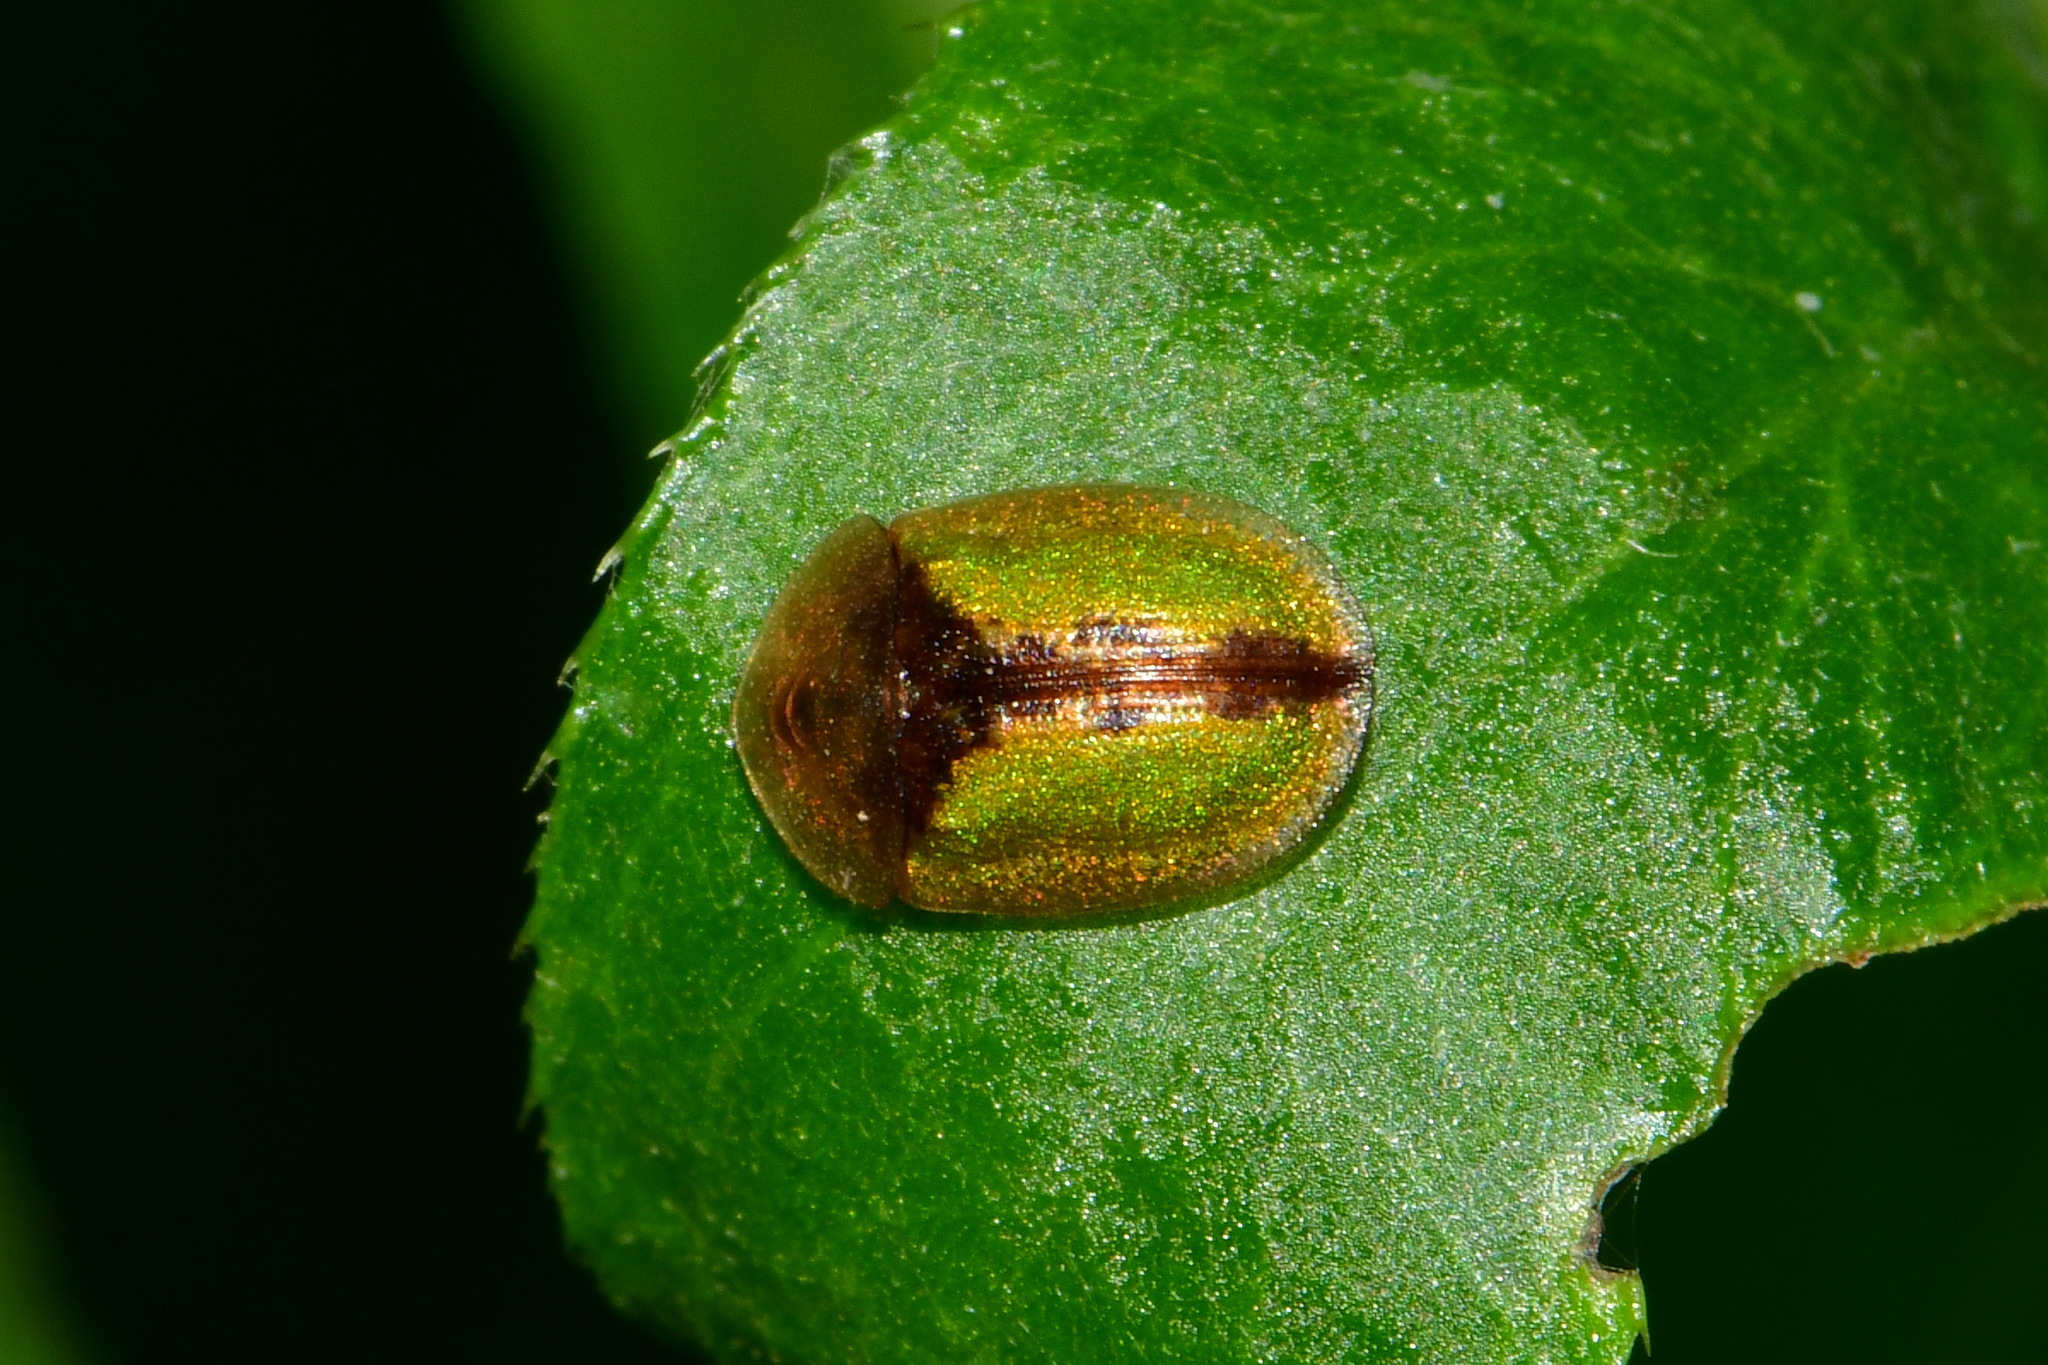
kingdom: Animalia
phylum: Arthropoda
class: Insecta
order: Coleoptera
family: Chrysomelidae
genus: Cassida
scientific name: Cassida vibex
